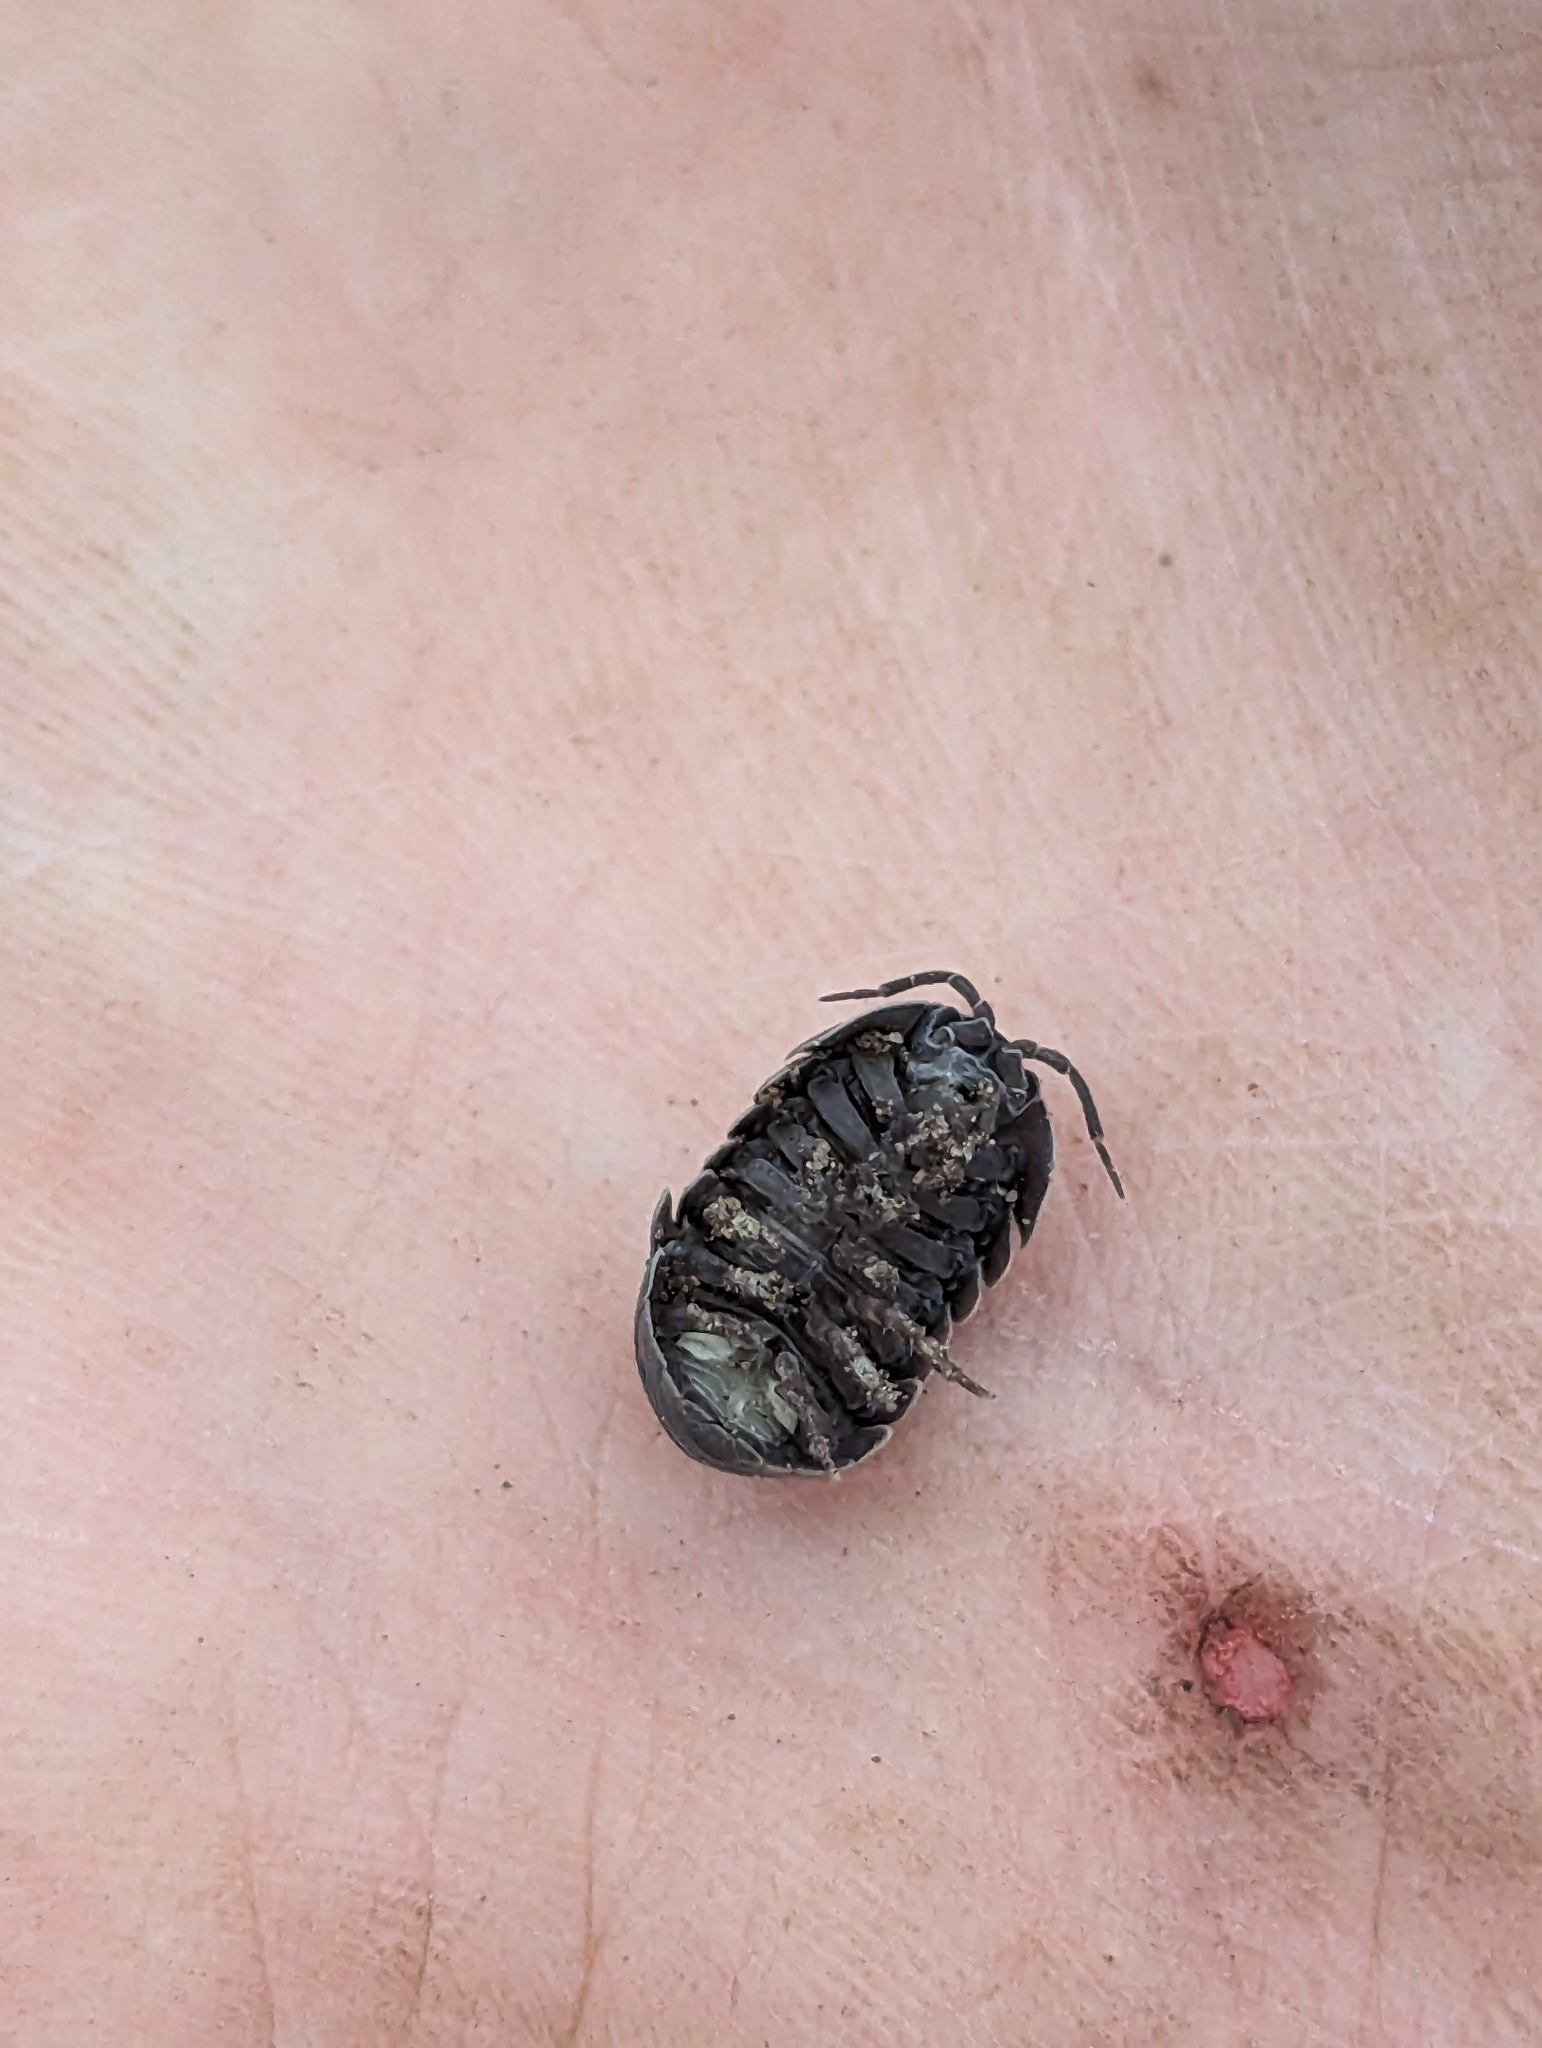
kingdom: Animalia
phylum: Arthropoda
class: Malacostraca
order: Isopoda
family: Armadillidiidae
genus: Armadillidium
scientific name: Armadillidium vulgare
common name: Common pill woodlouse
